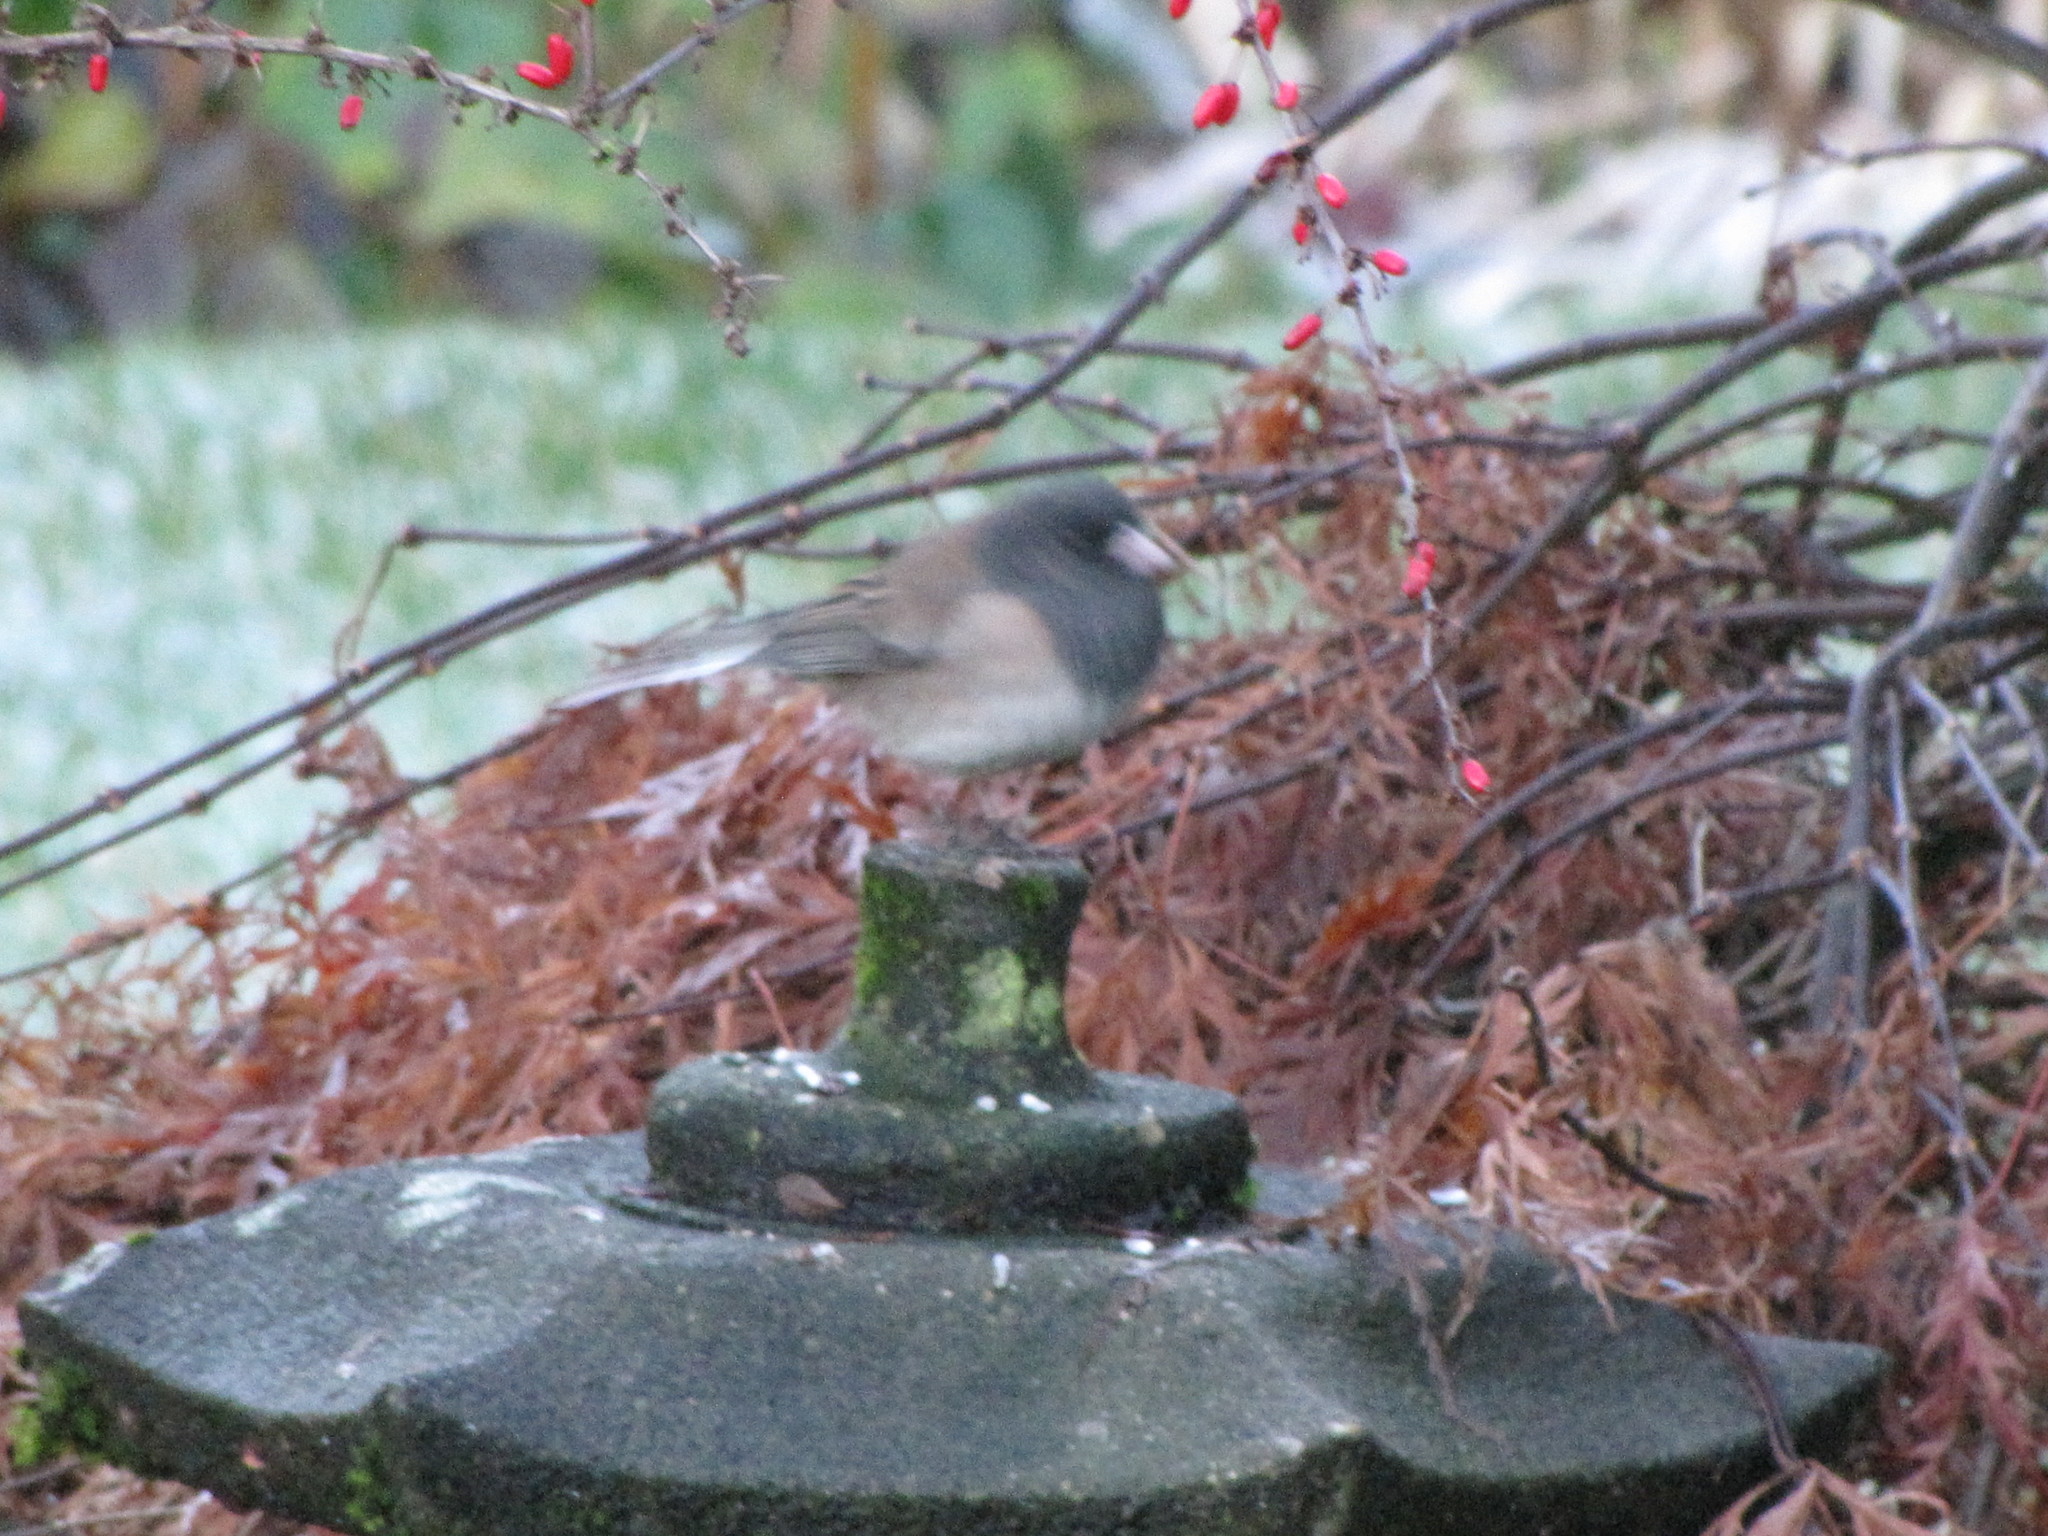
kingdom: Animalia
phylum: Chordata
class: Aves
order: Passeriformes
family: Passerellidae
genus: Junco
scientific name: Junco hyemalis
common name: Dark-eyed junco
